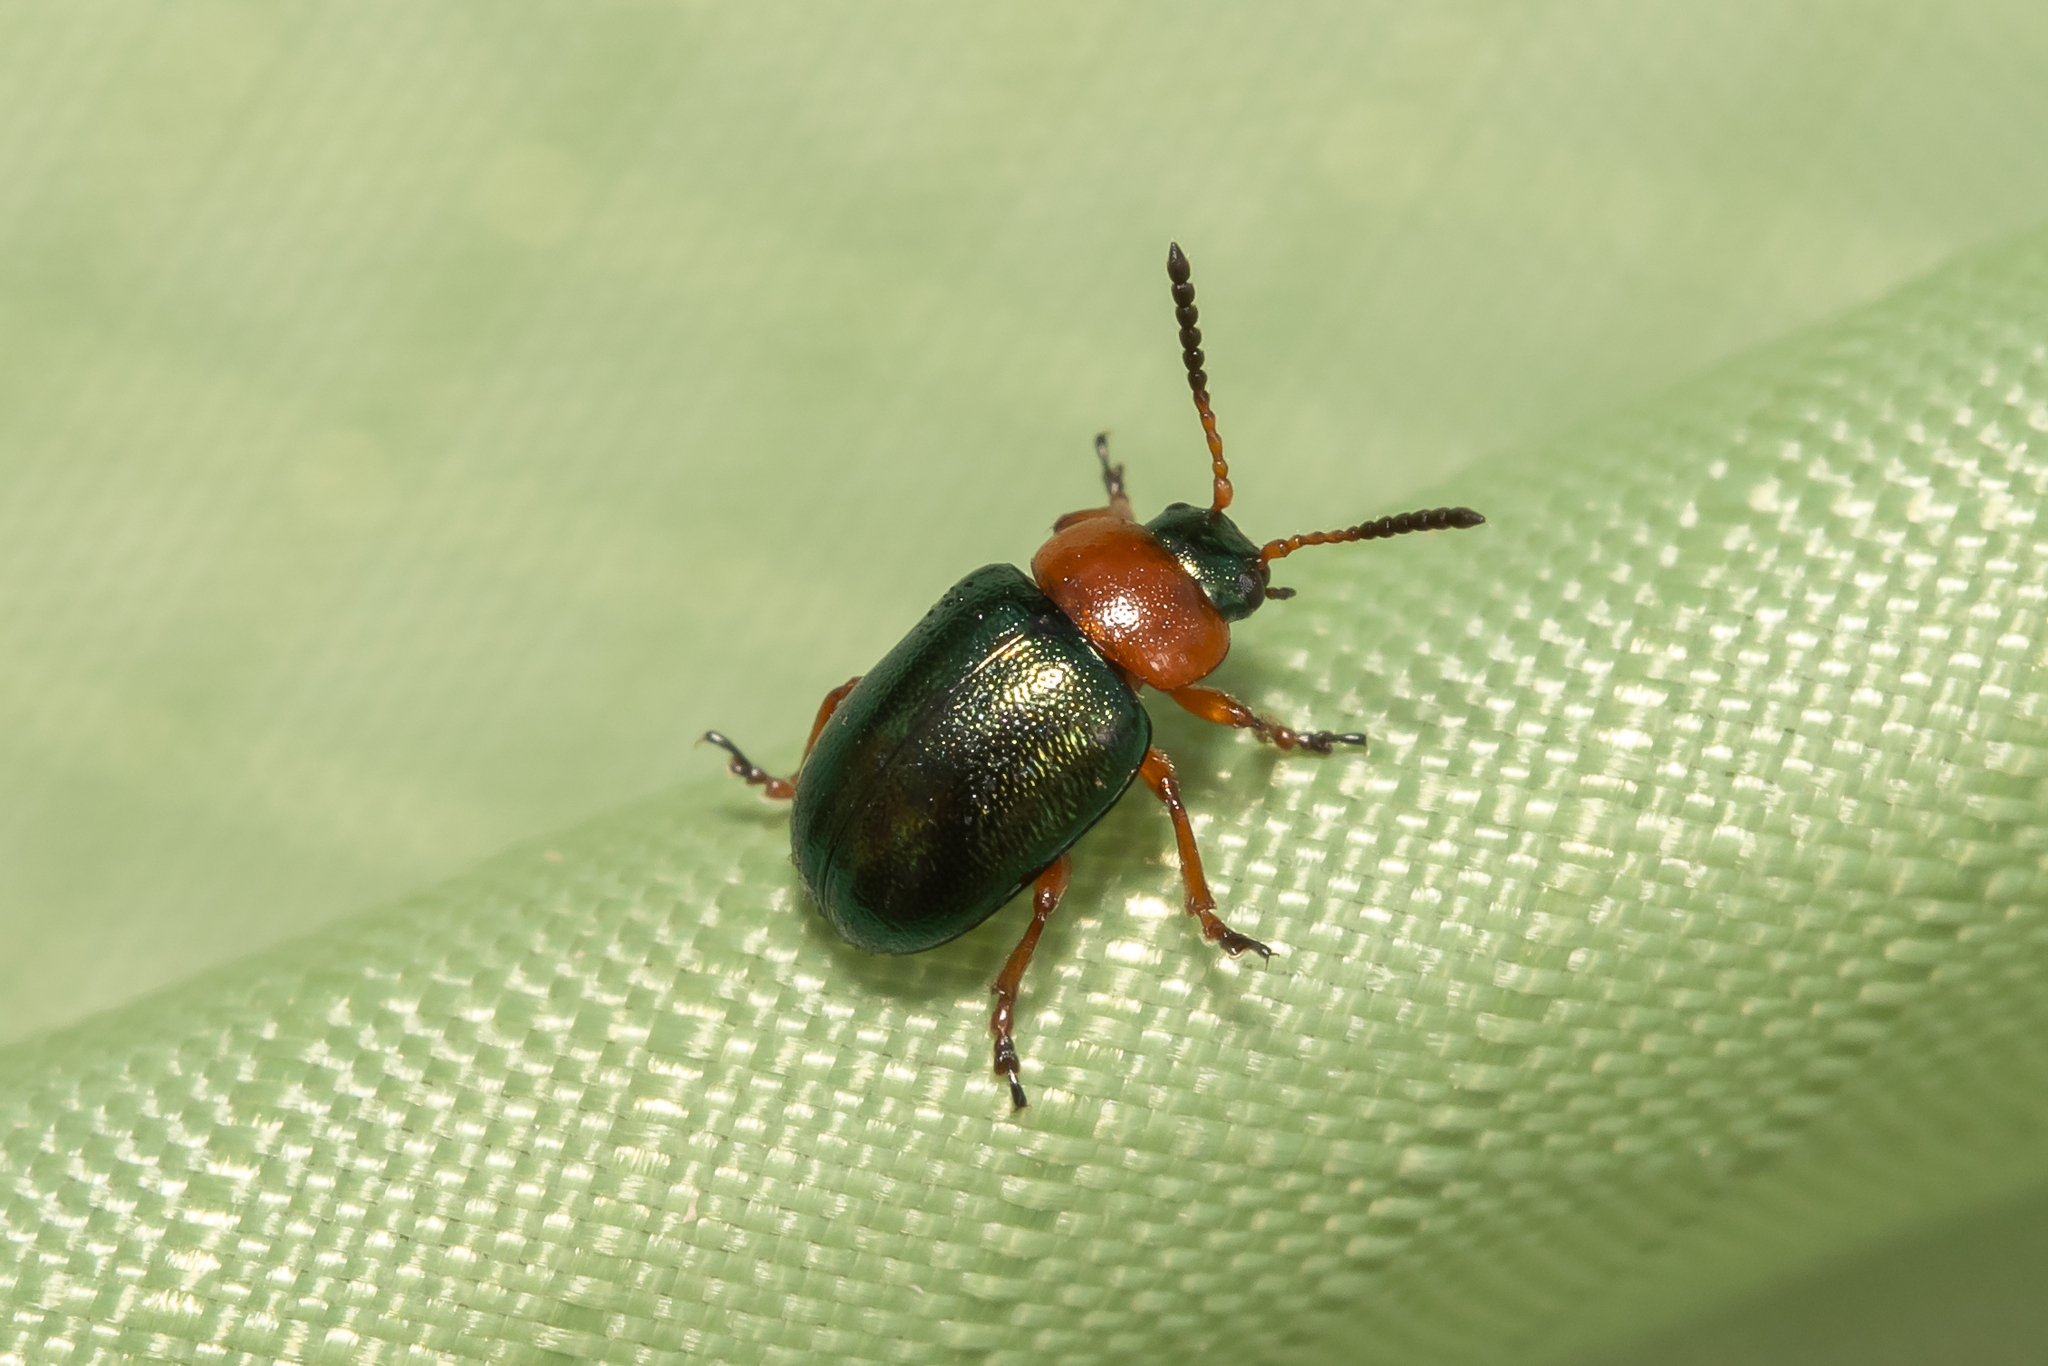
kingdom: Animalia
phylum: Arthropoda
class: Insecta
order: Coleoptera
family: Chrysomelidae
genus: Gastrophysa
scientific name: Gastrophysa polygoni
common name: Knotweed leaf beetle
